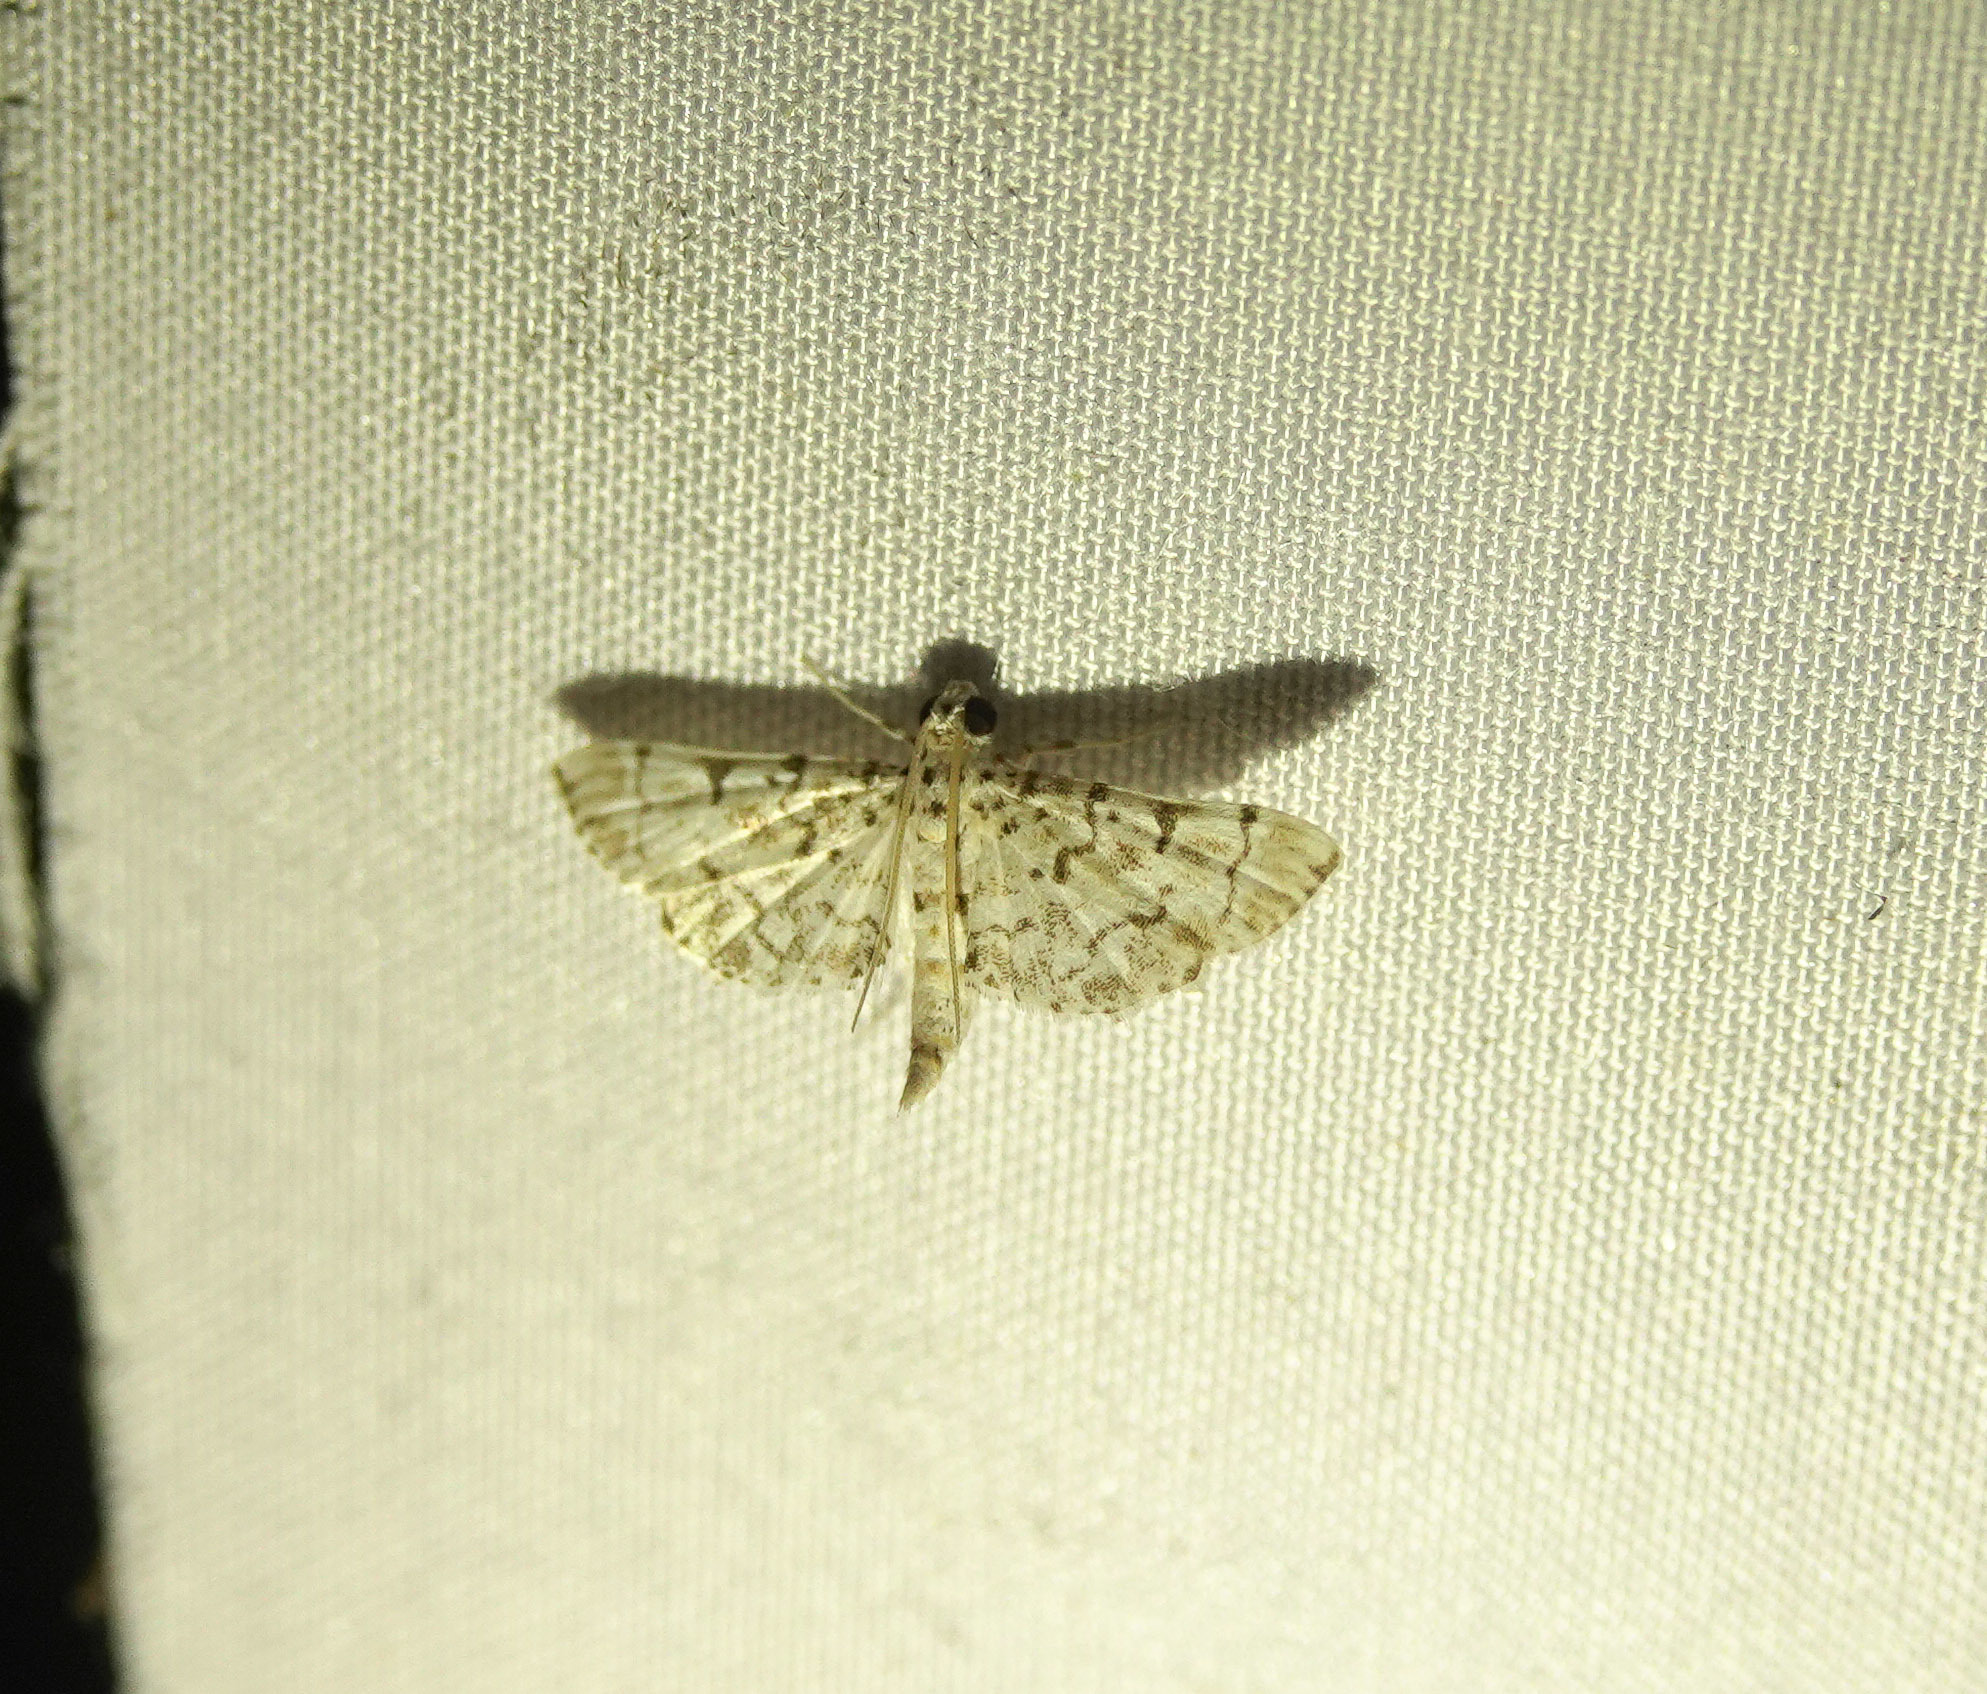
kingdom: Animalia
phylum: Arthropoda
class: Insecta
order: Lepidoptera
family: Crambidae
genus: Metoeca
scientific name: Metoeca foedalis
